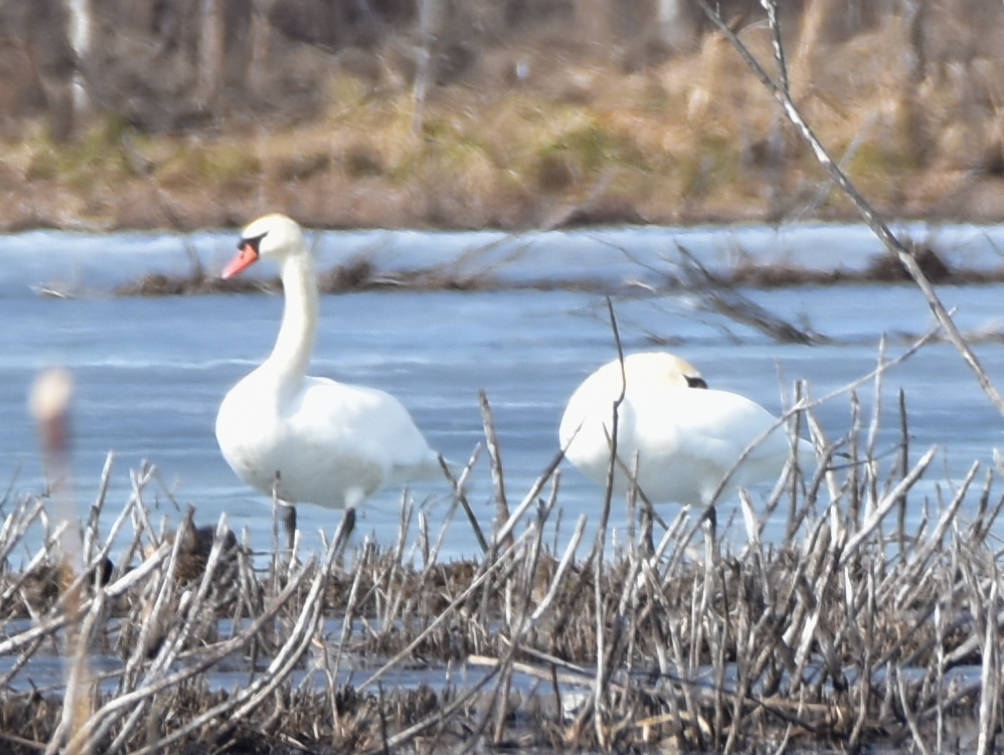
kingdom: Animalia
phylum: Chordata
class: Aves
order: Anseriformes
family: Anatidae
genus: Cygnus
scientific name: Cygnus olor
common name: Mute swan
